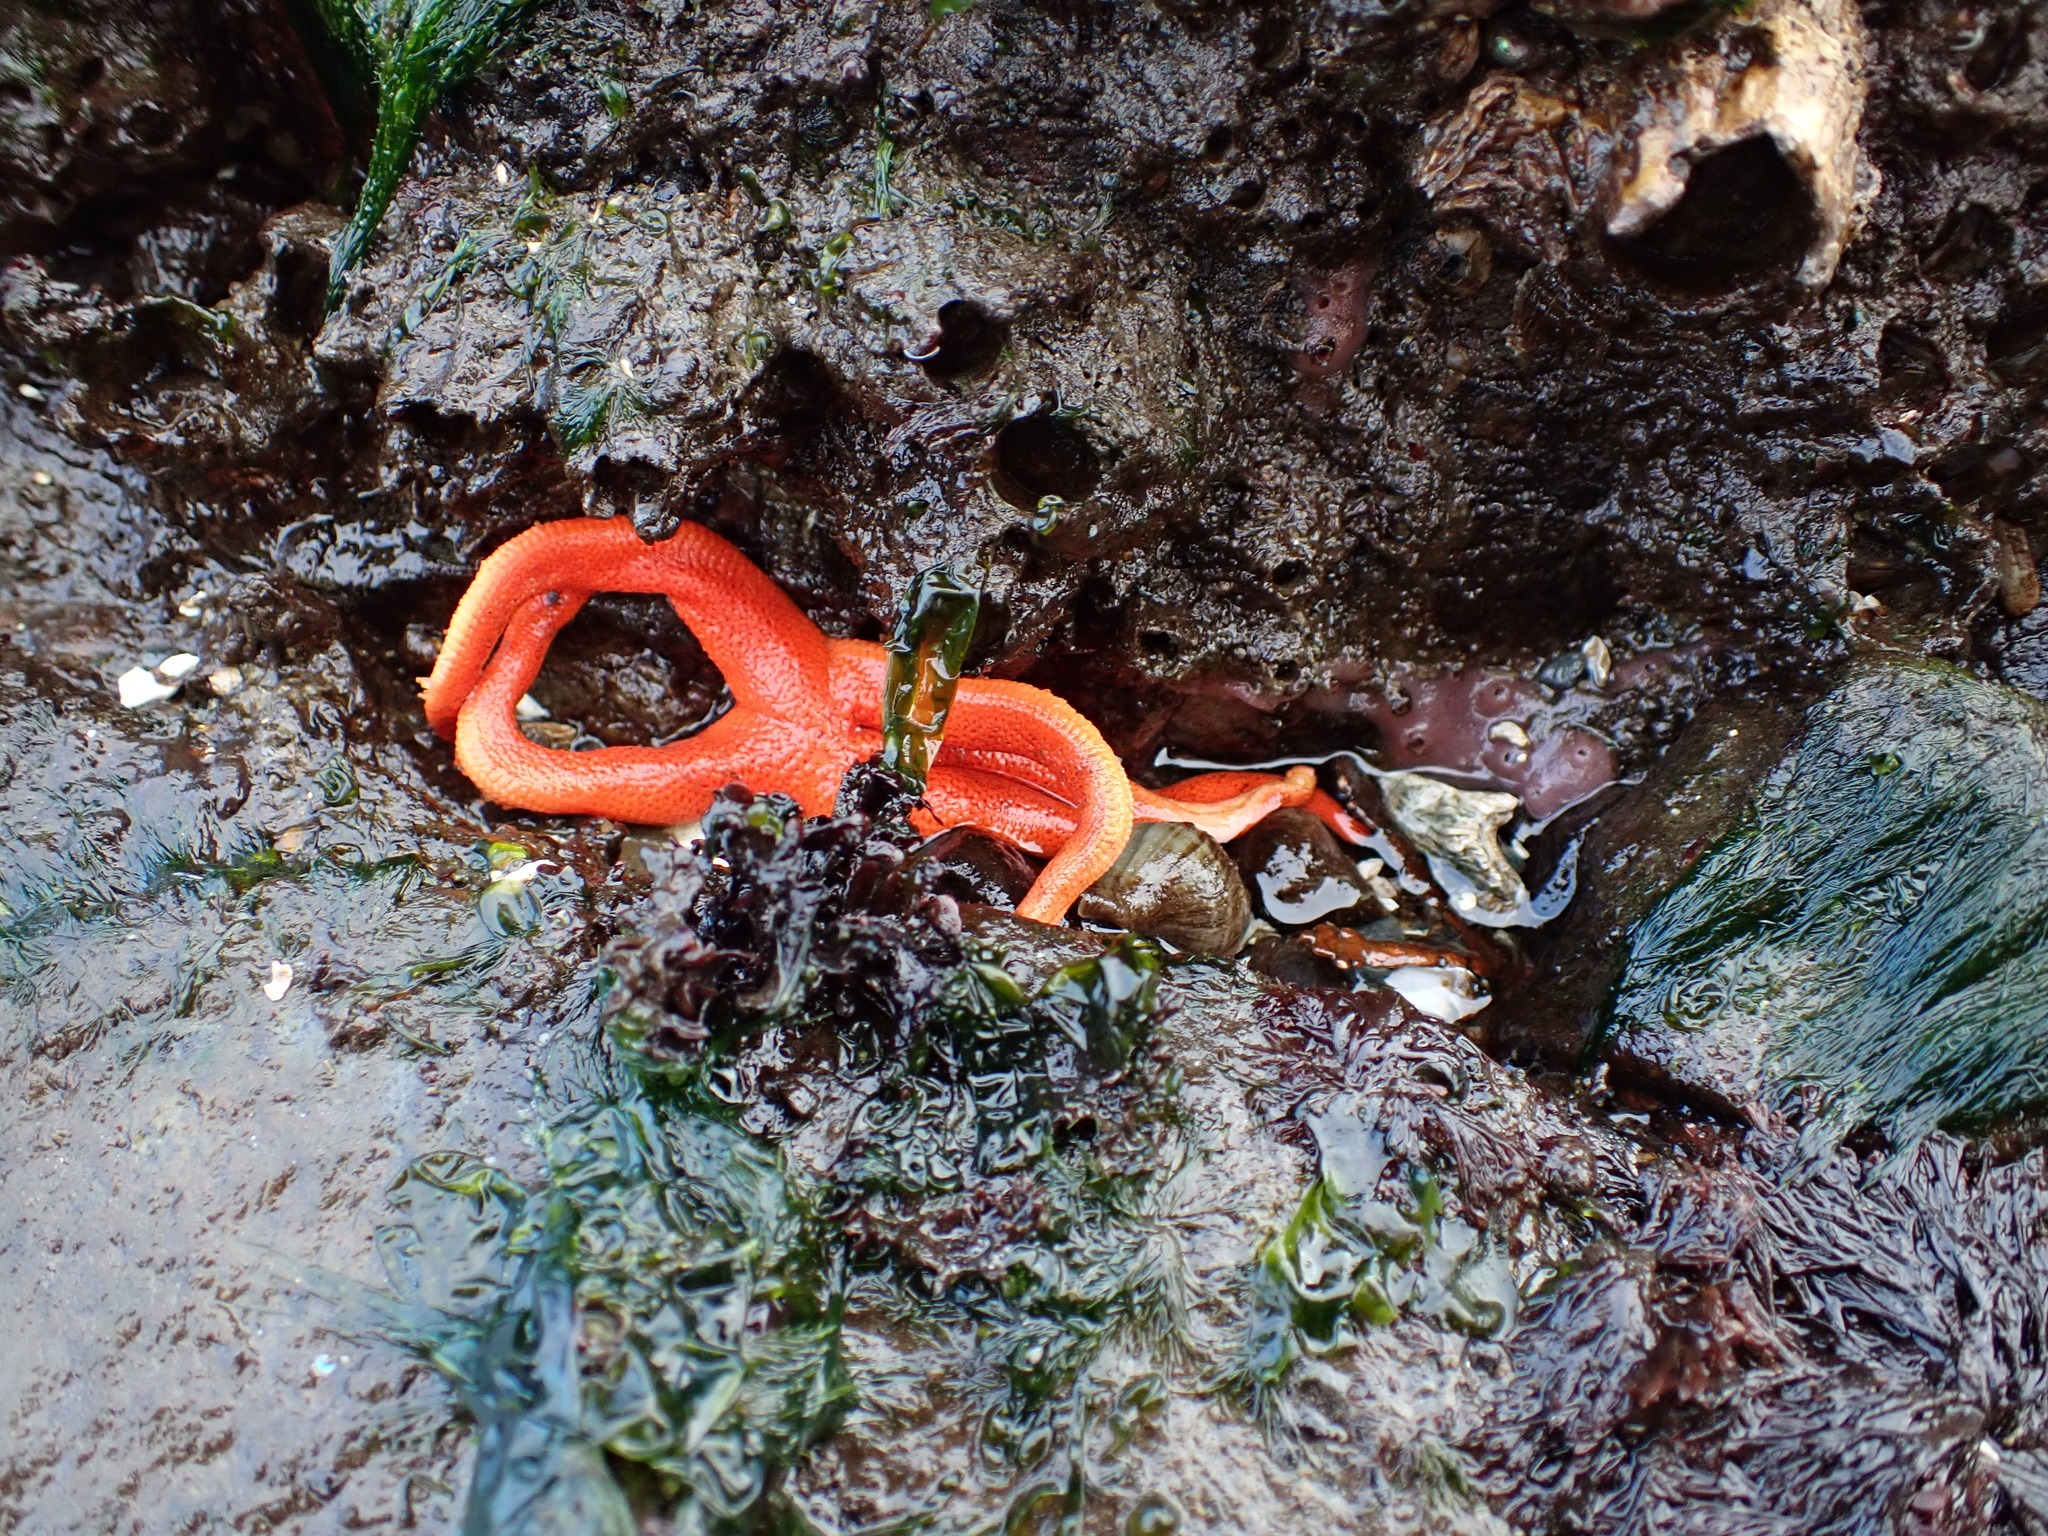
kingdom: Animalia
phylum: Echinodermata
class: Asteroidea
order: Spinulosida
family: Echinasteridae
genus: Henricia
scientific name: Henricia leviuscula
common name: Pacific blood star
